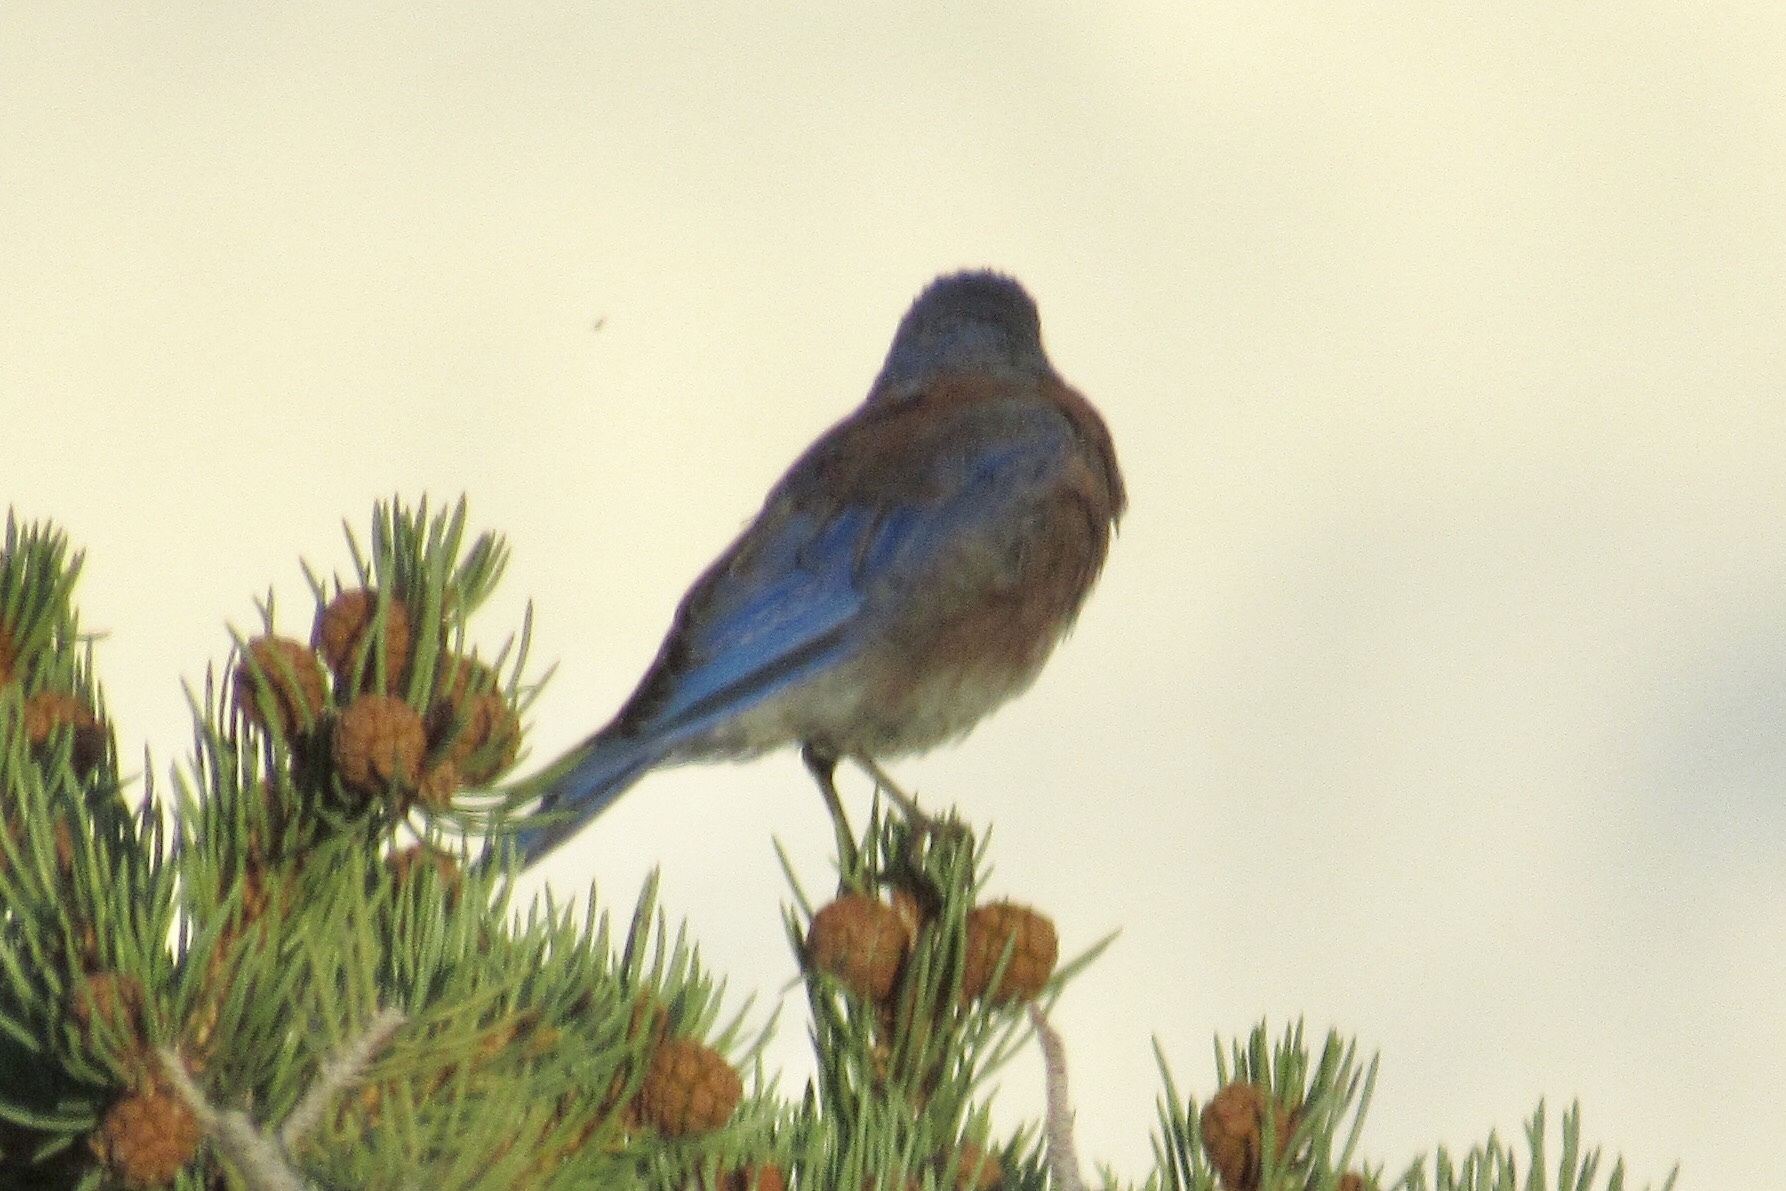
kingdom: Animalia
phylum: Chordata
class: Aves
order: Passeriformes
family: Turdidae
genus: Sialia
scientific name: Sialia mexicana
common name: Western bluebird
